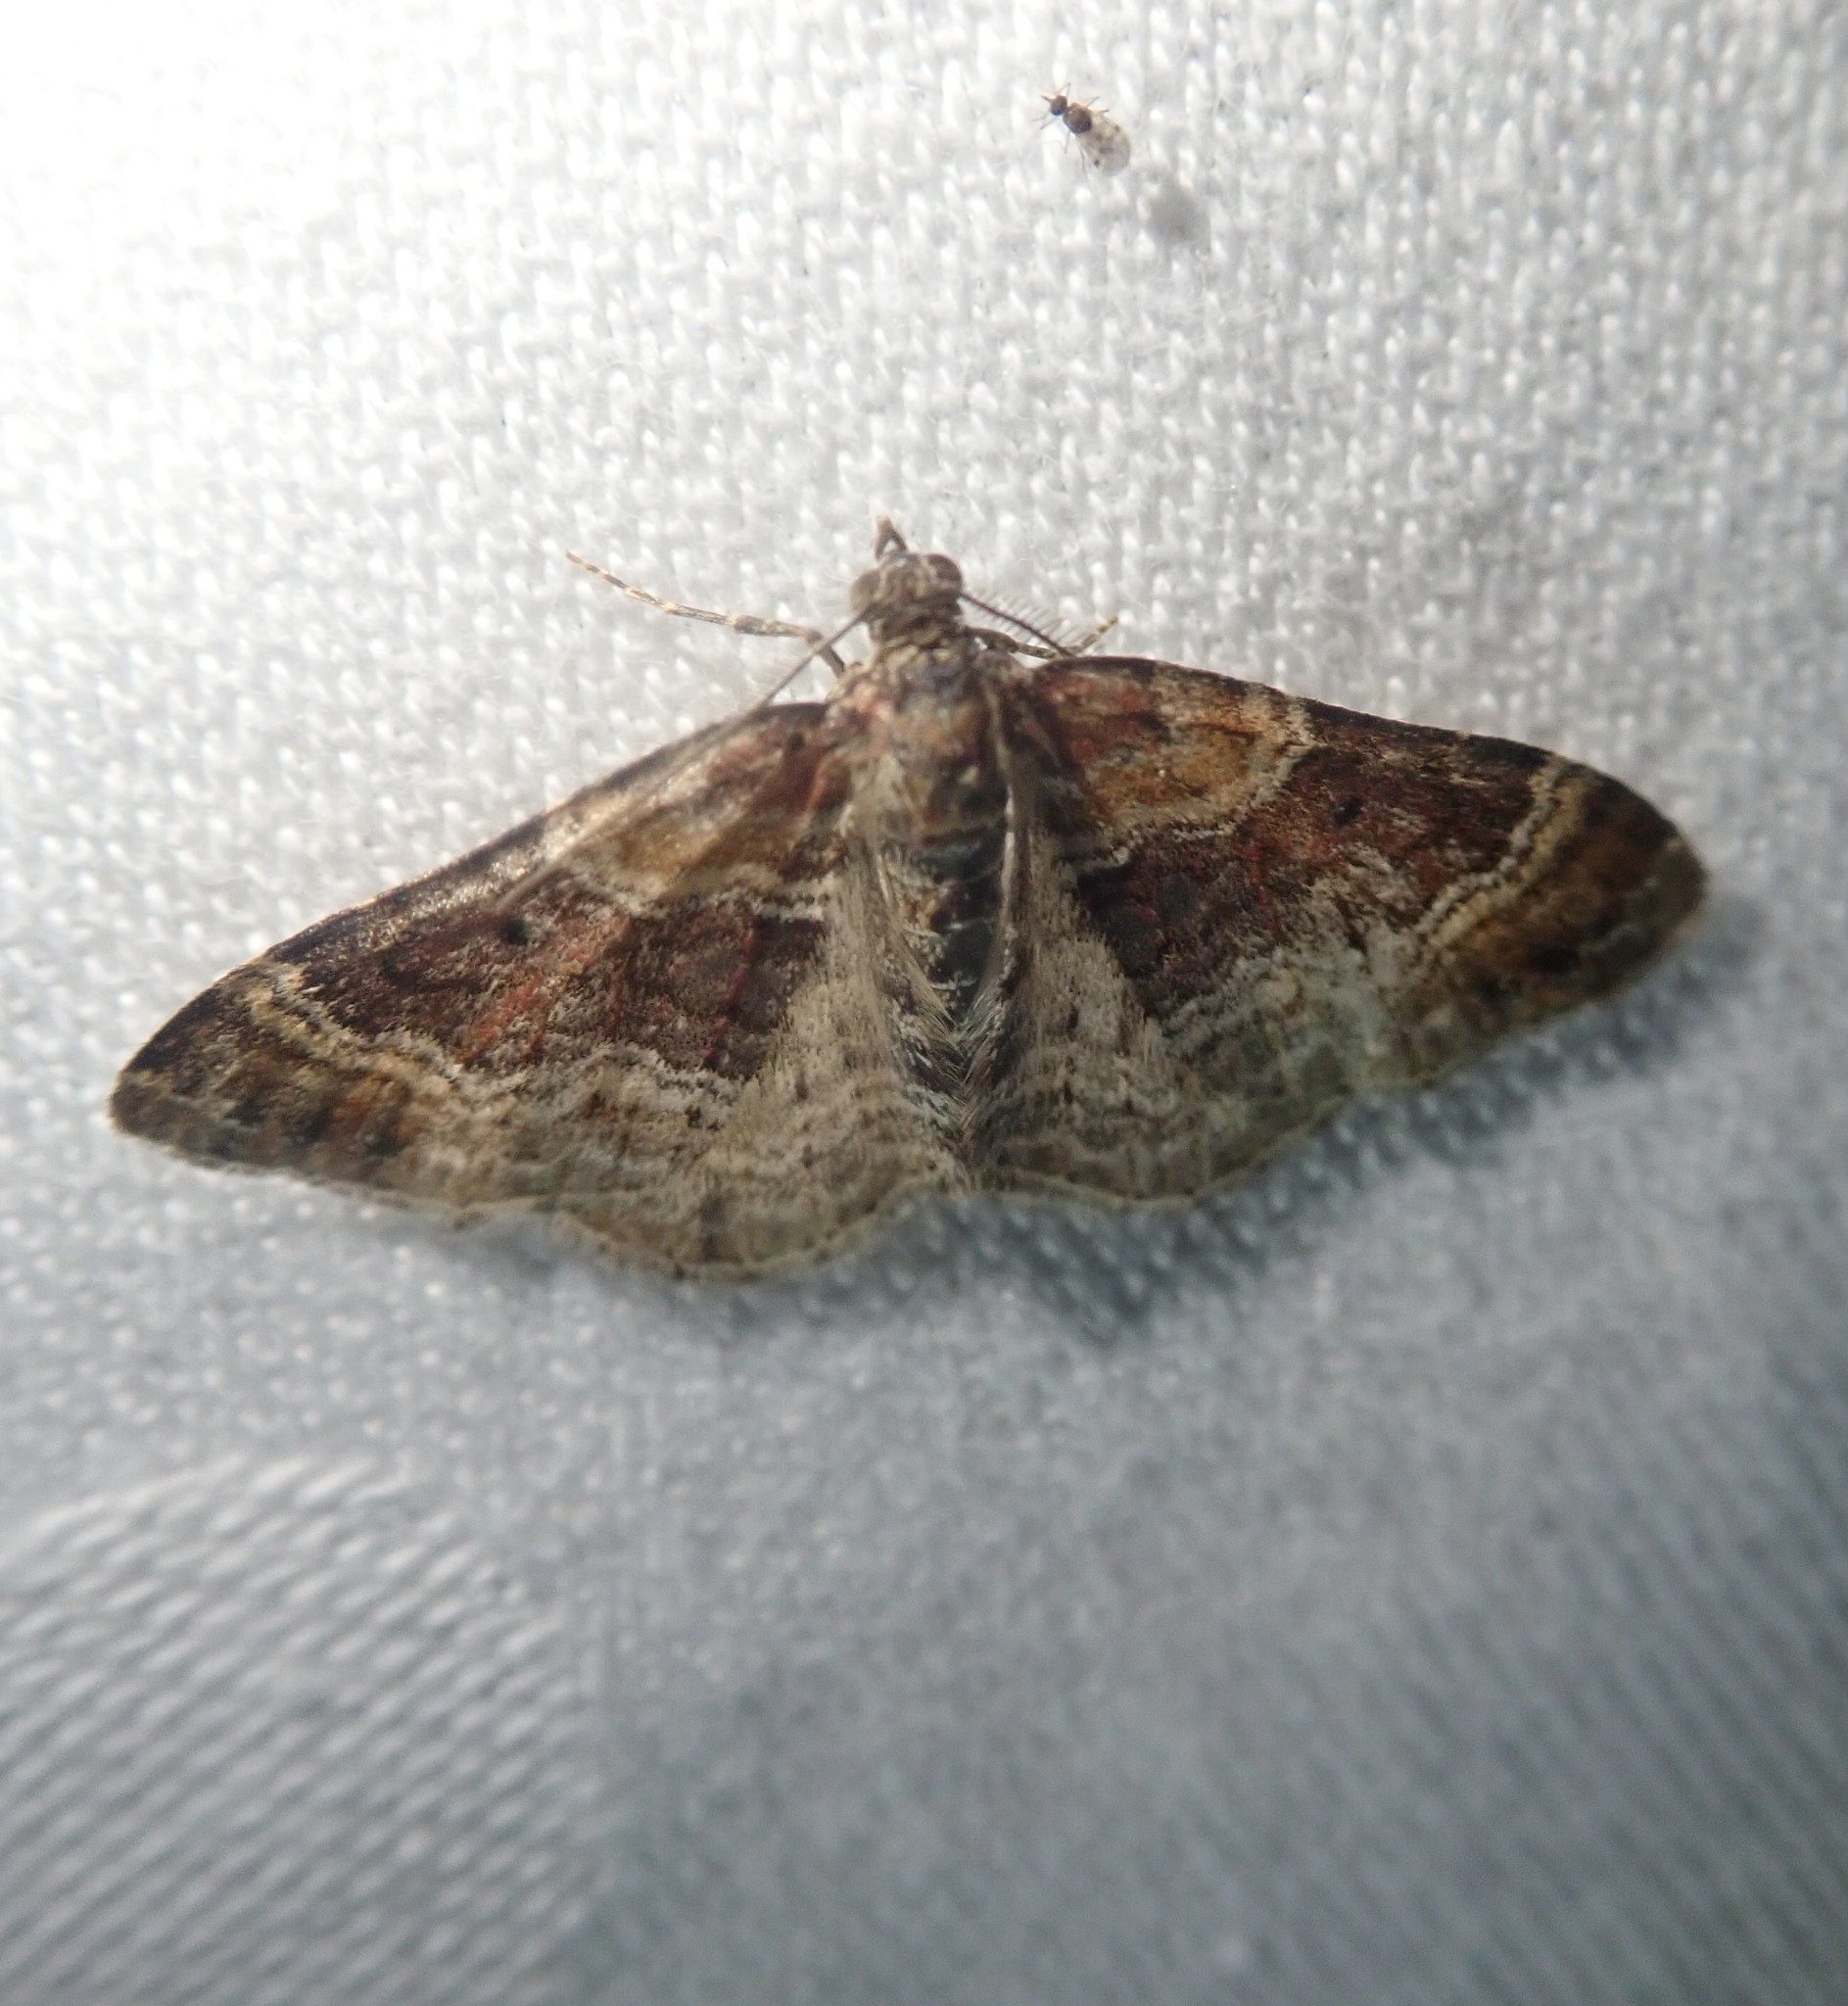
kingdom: Animalia
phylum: Arthropoda
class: Insecta
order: Lepidoptera
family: Geometridae
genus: Xanthorhoe
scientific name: Xanthorhoe spadicearia
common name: Red twin-spot carpet
